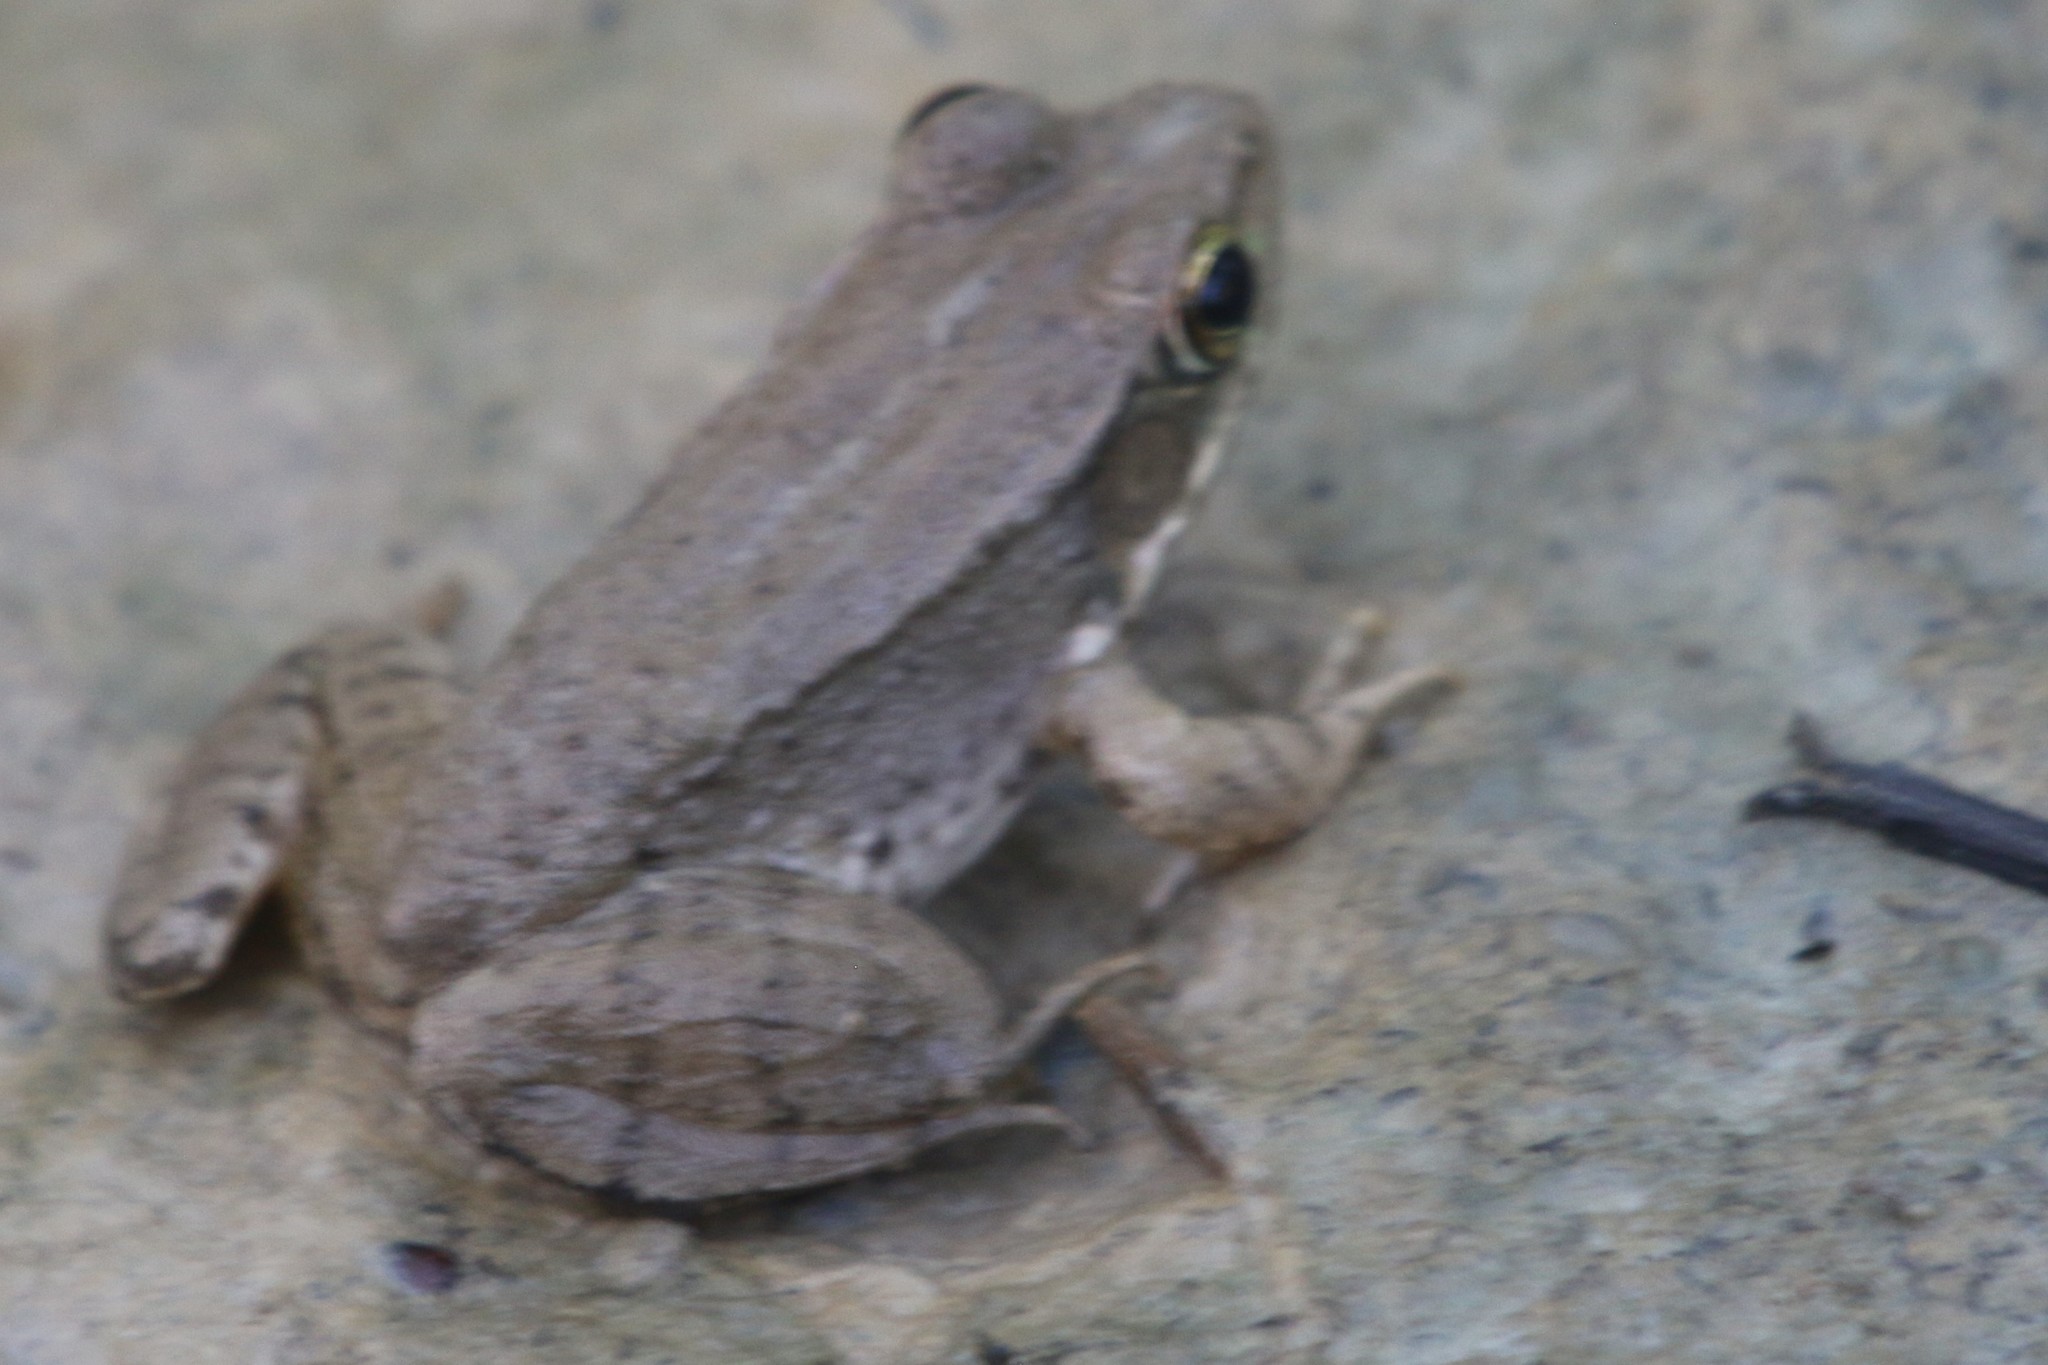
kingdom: Animalia
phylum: Chordata
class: Amphibia
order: Anura
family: Ranidae
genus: Lithobates
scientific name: Lithobates clamitans
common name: Green frog
